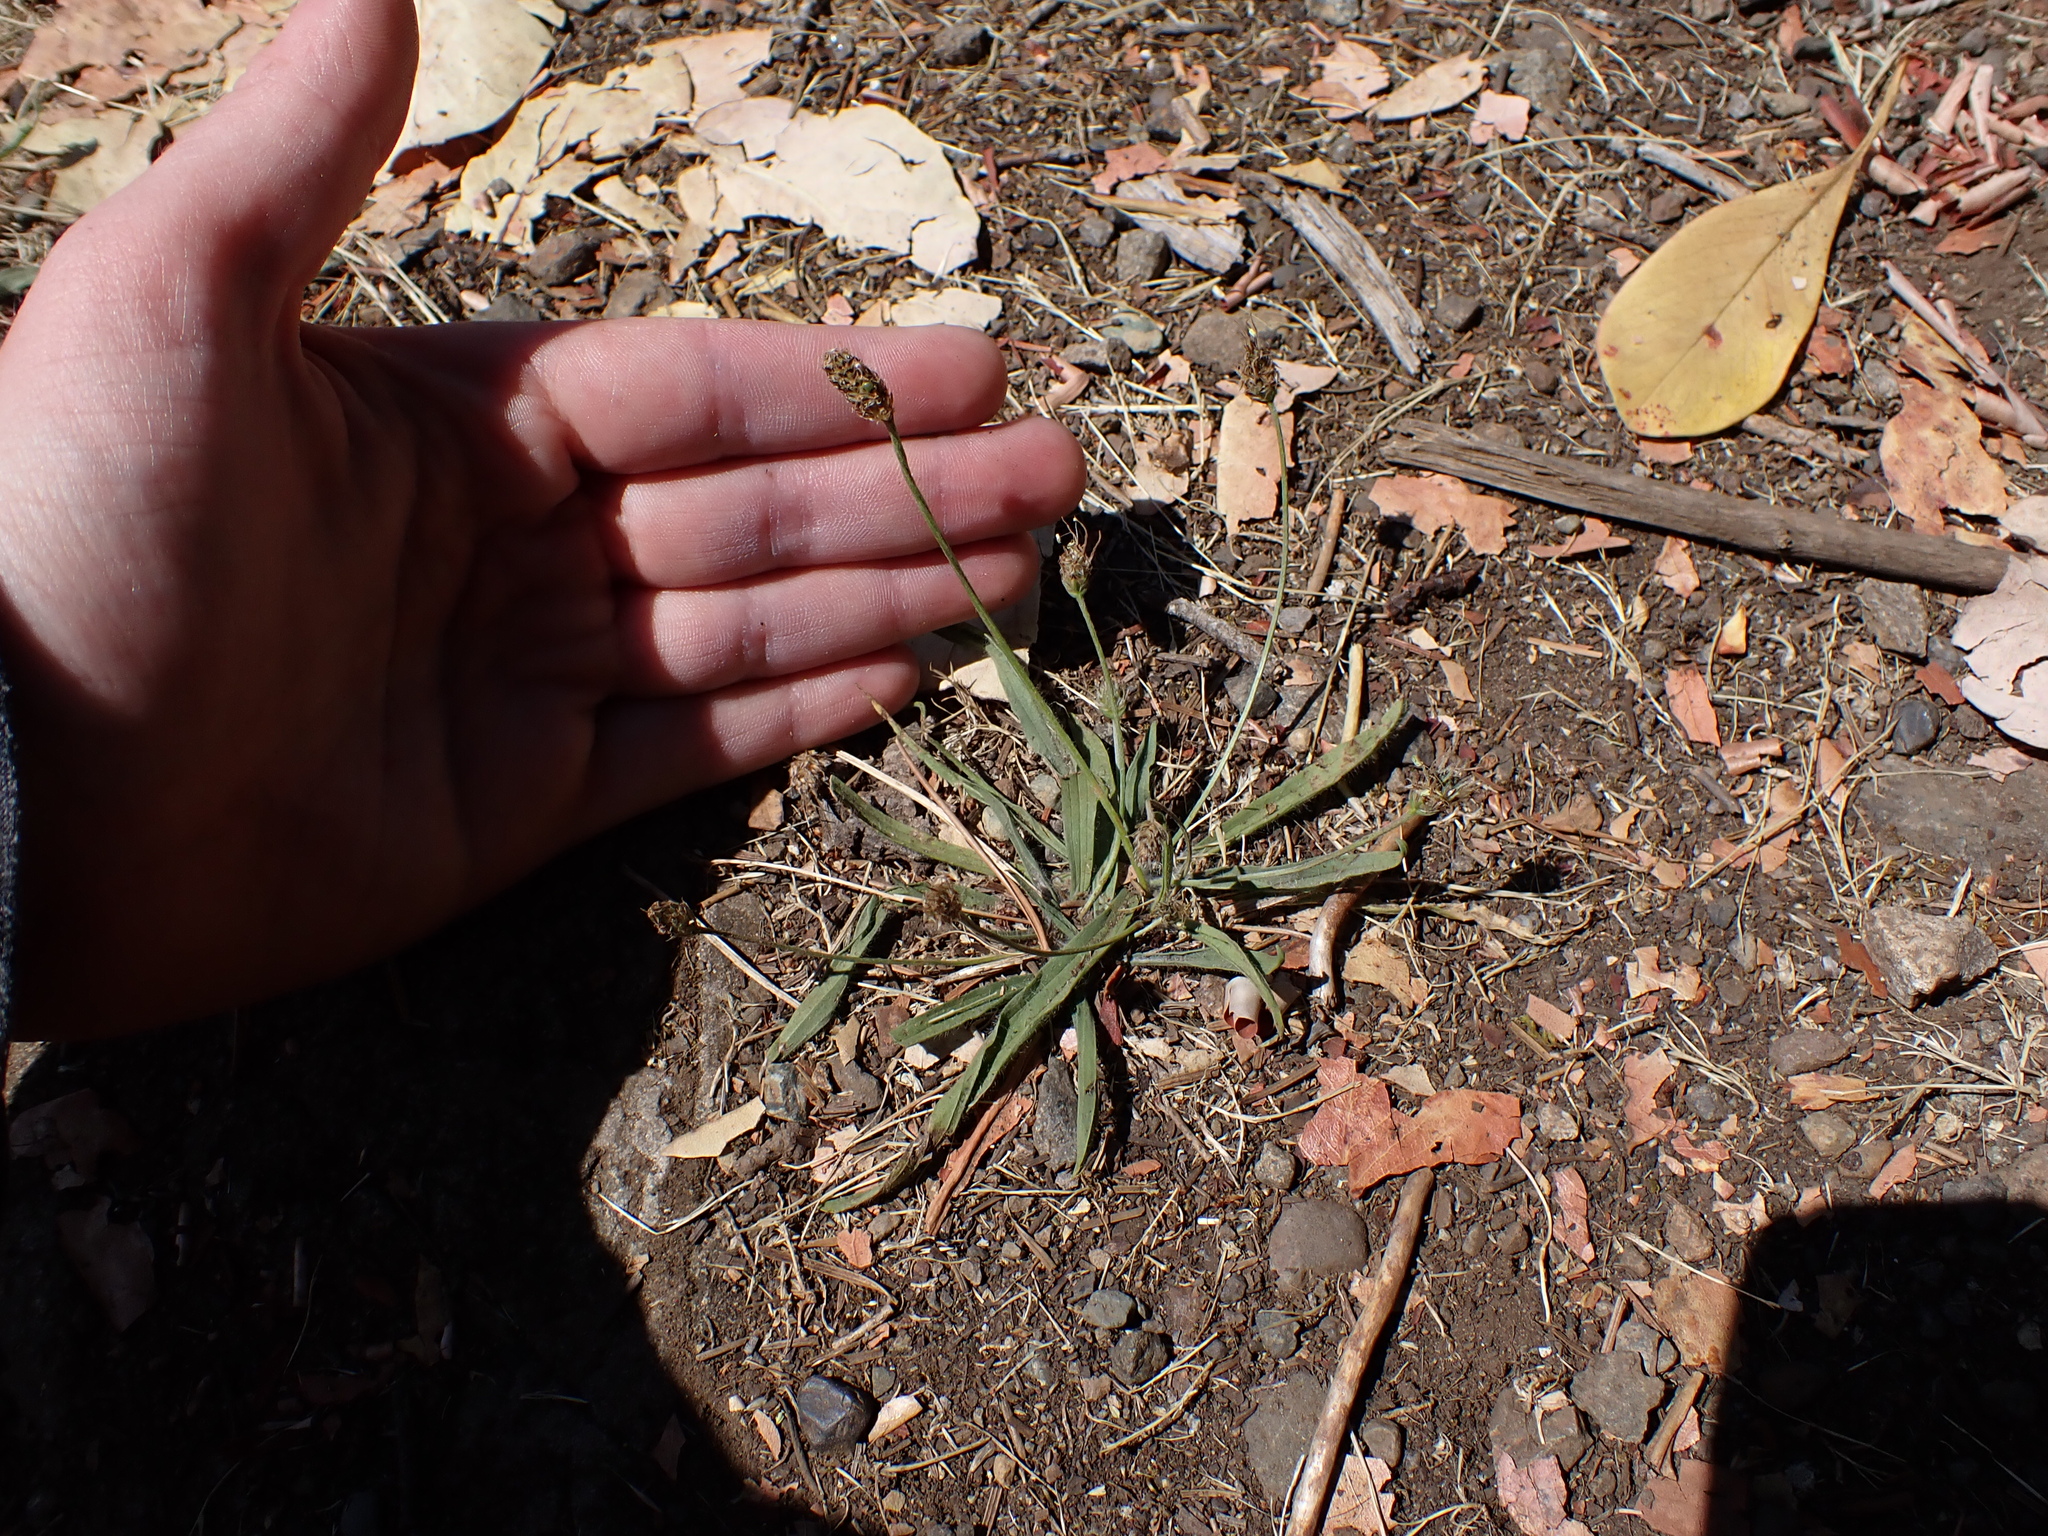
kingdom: Plantae
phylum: Tracheophyta
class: Magnoliopsida
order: Lamiales
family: Plantaginaceae
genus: Plantago
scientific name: Plantago lanceolata
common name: Ribwort plantain
